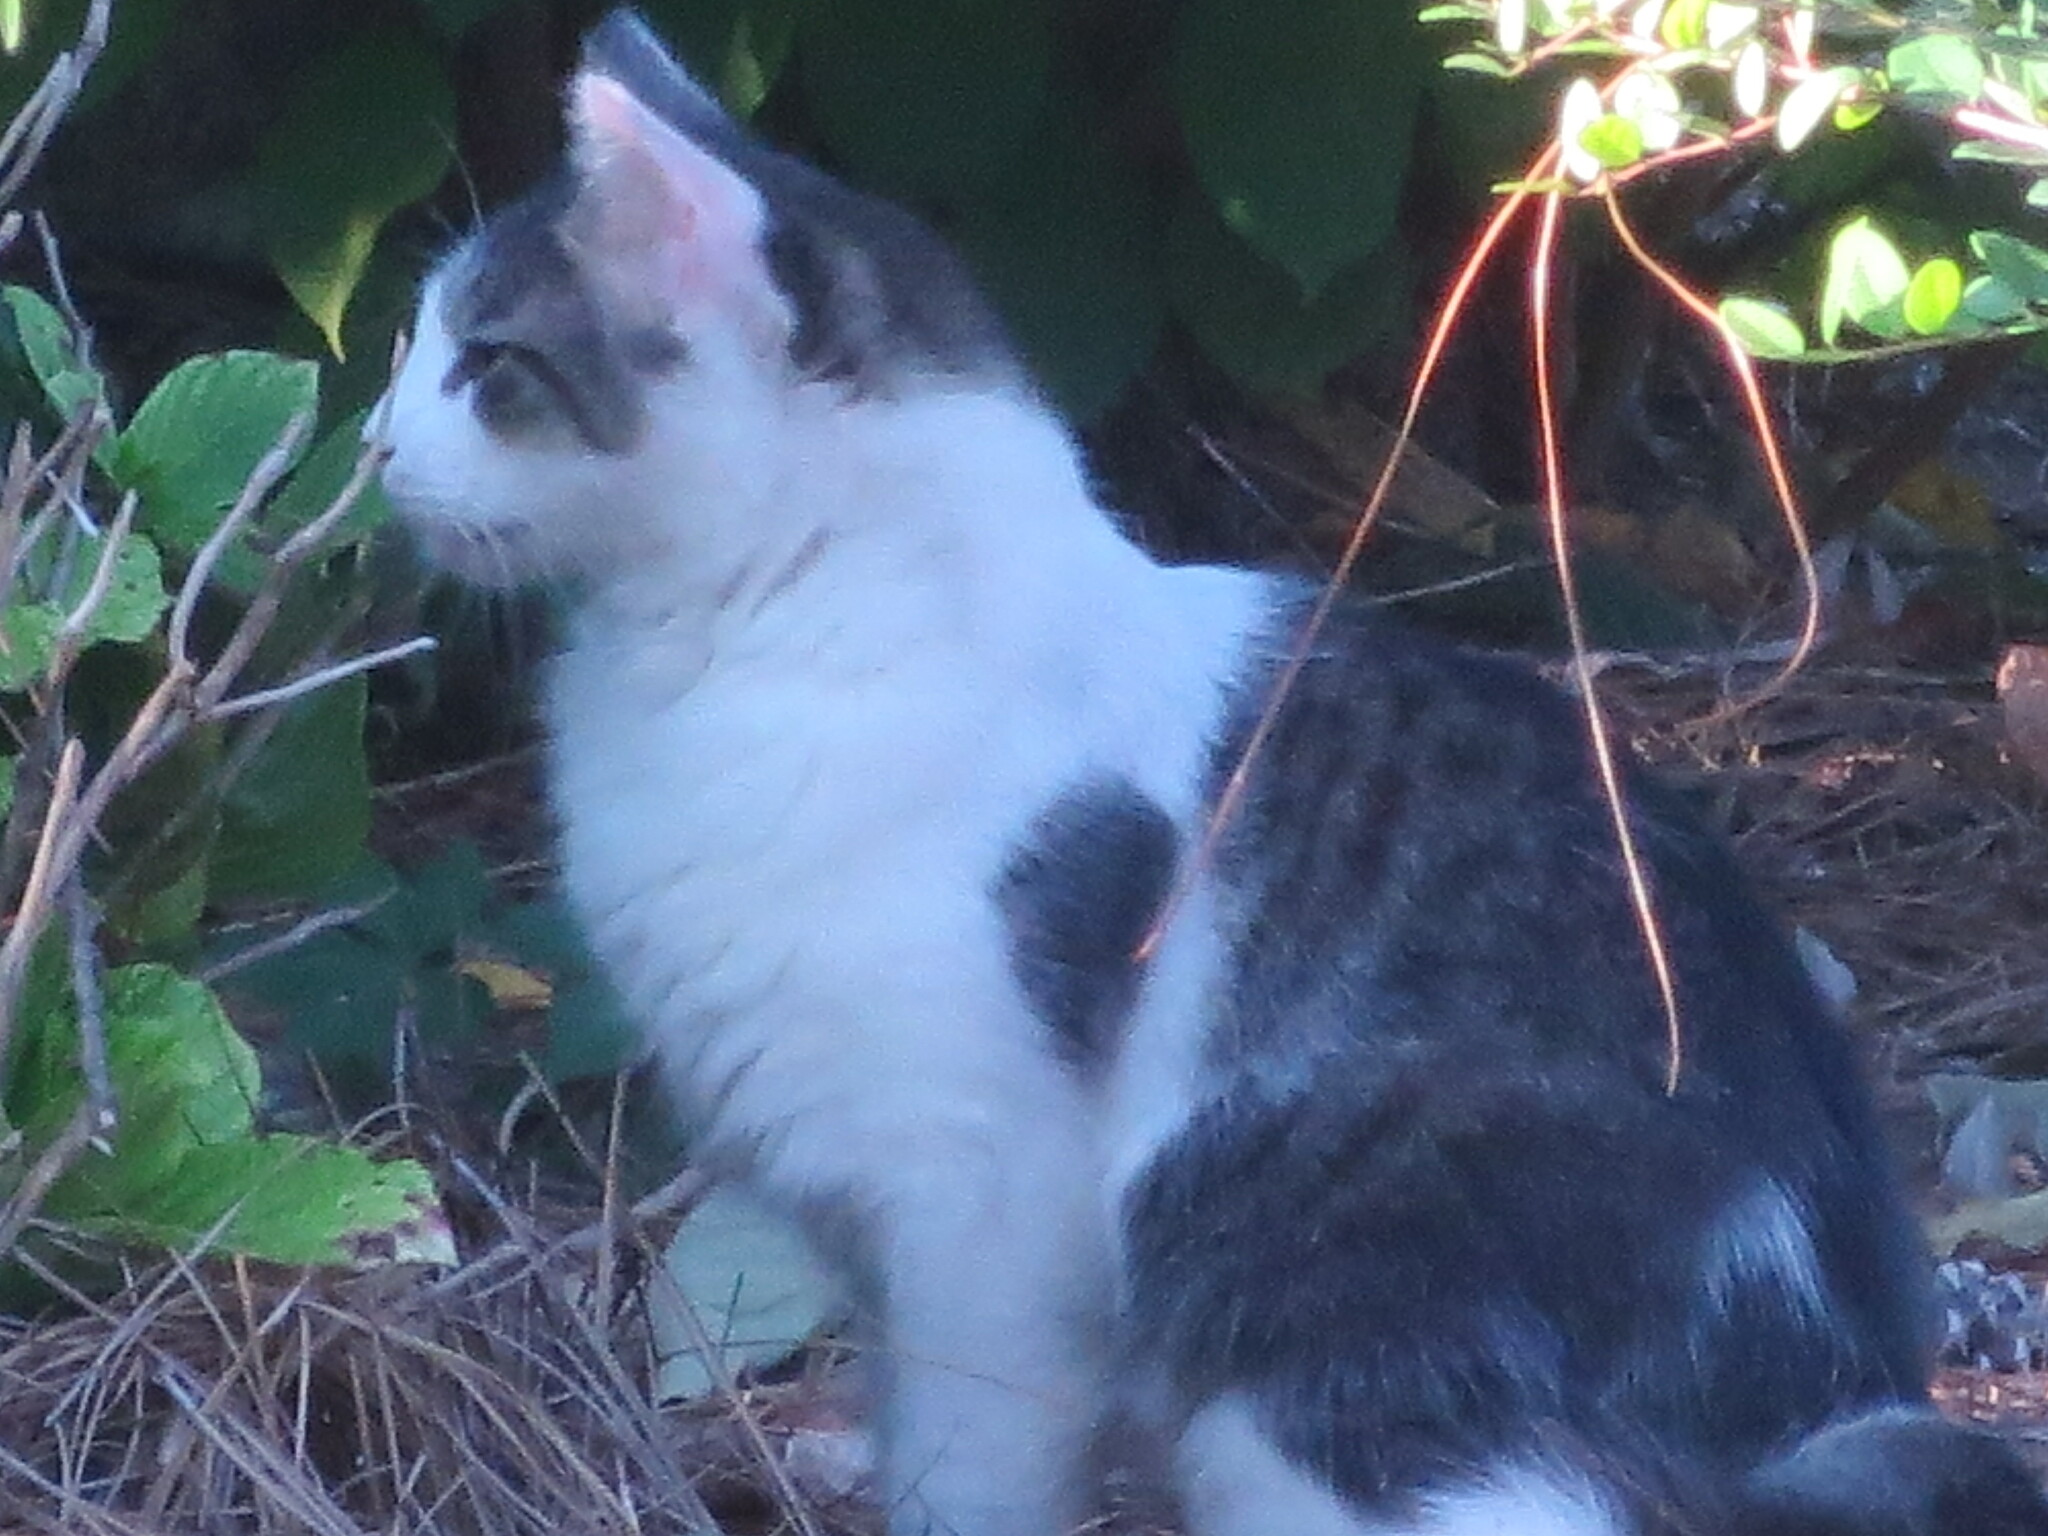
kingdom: Animalia
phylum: Chordata
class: Mammalia
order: Carnivora
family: Felidae
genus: Felis
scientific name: Felis catus
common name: Domestic cat
